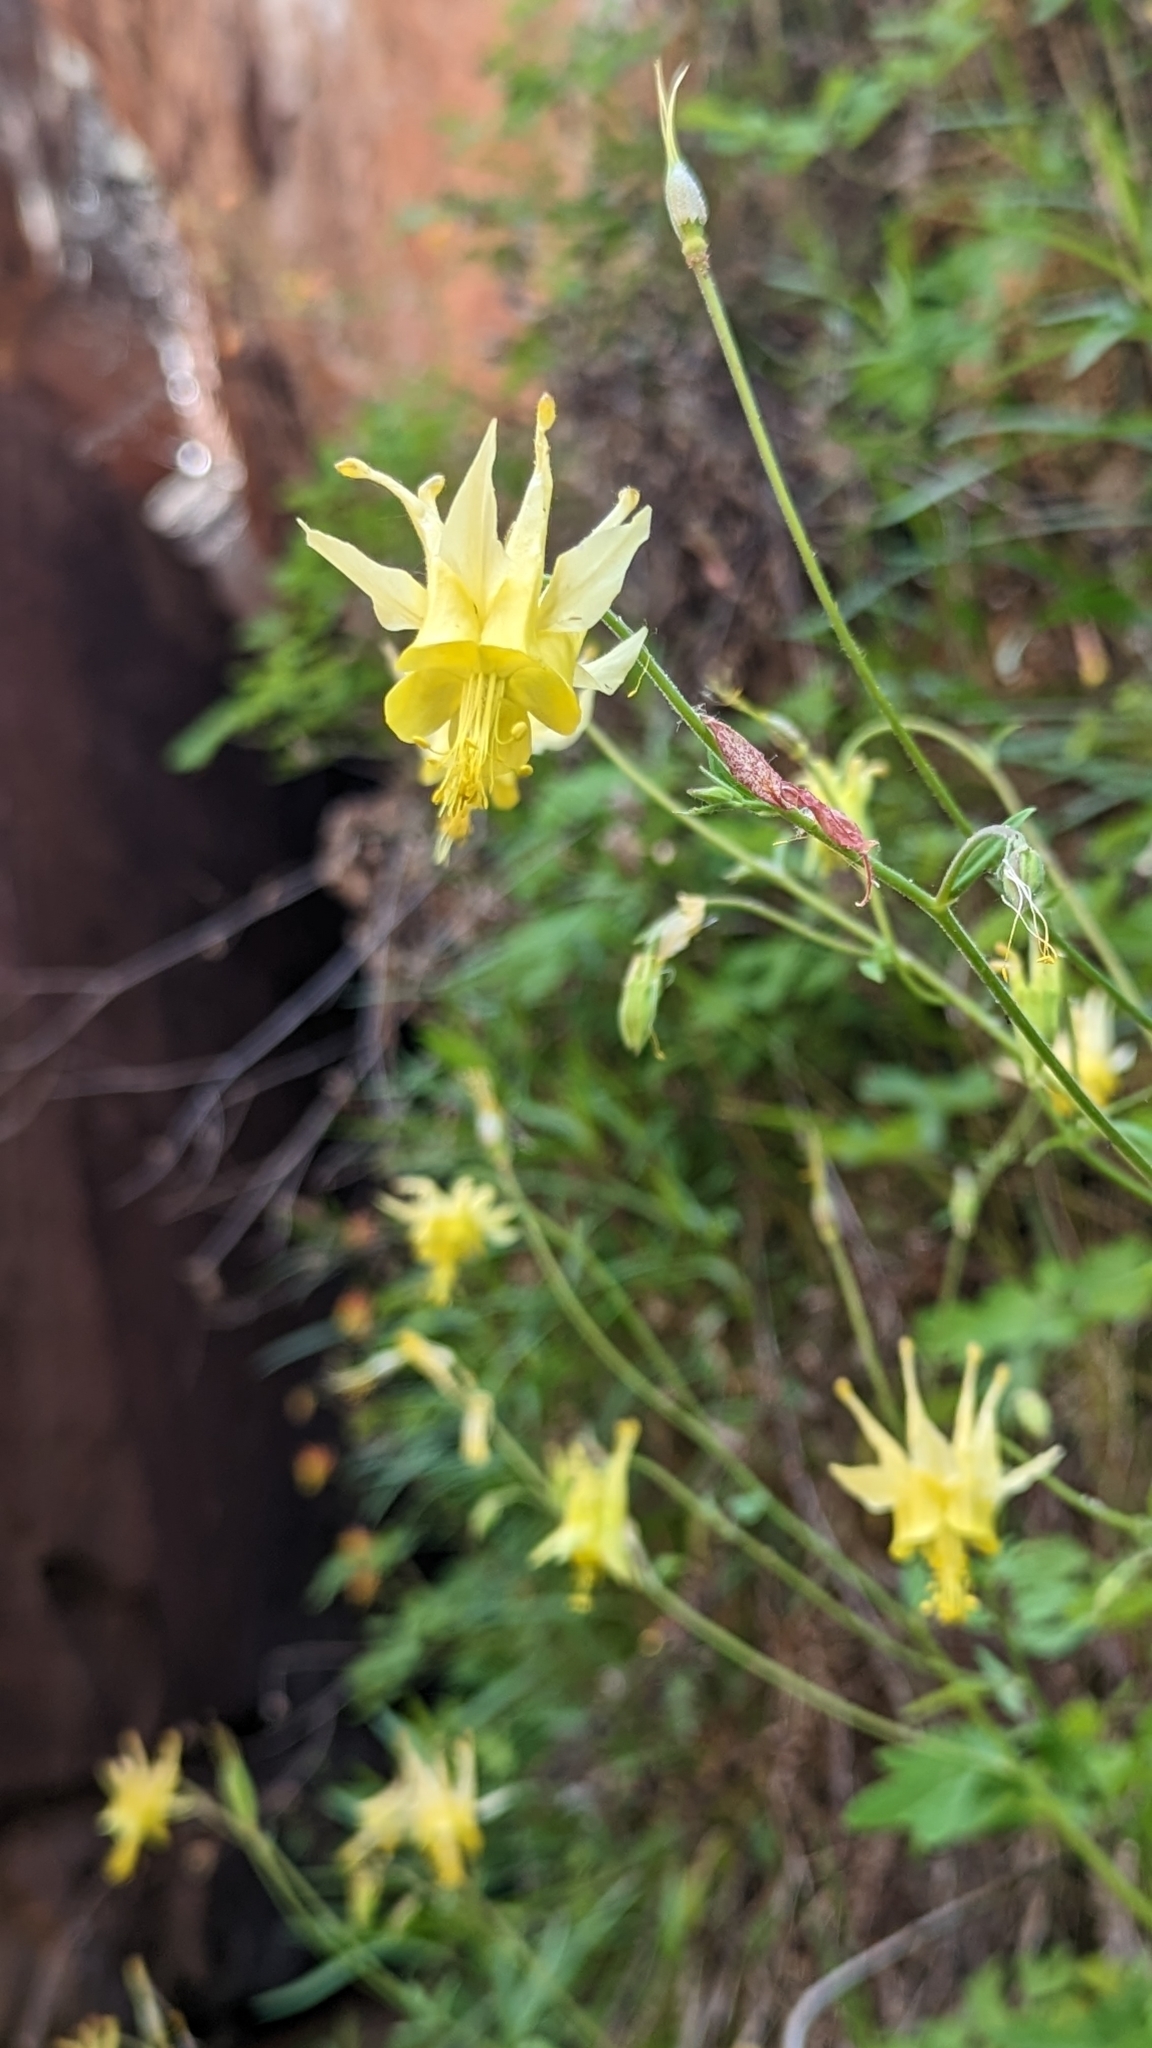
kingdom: Plantae
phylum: Tracheophyta
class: Magnoliopsida
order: Ranunculales
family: Ranunculaceae
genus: Aquilegia
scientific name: Aquilegia chrysantha
